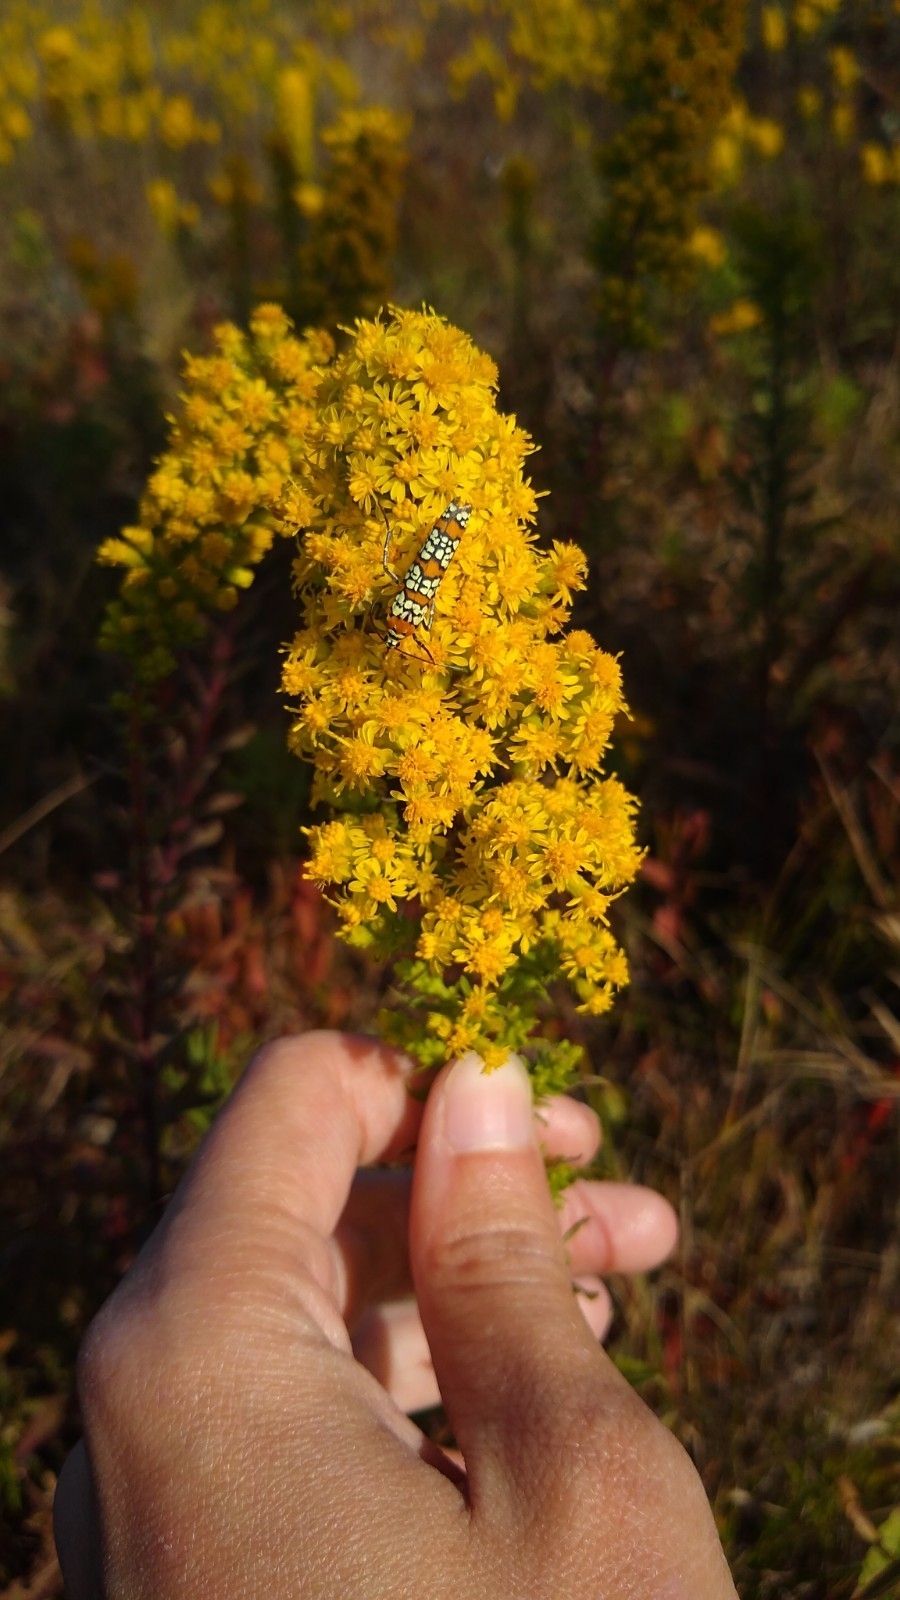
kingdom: Animalia
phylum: Arthropoda
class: Insecta
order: Lepidoptera
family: Attevidae
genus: Atteva
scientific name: Atteva punctella
